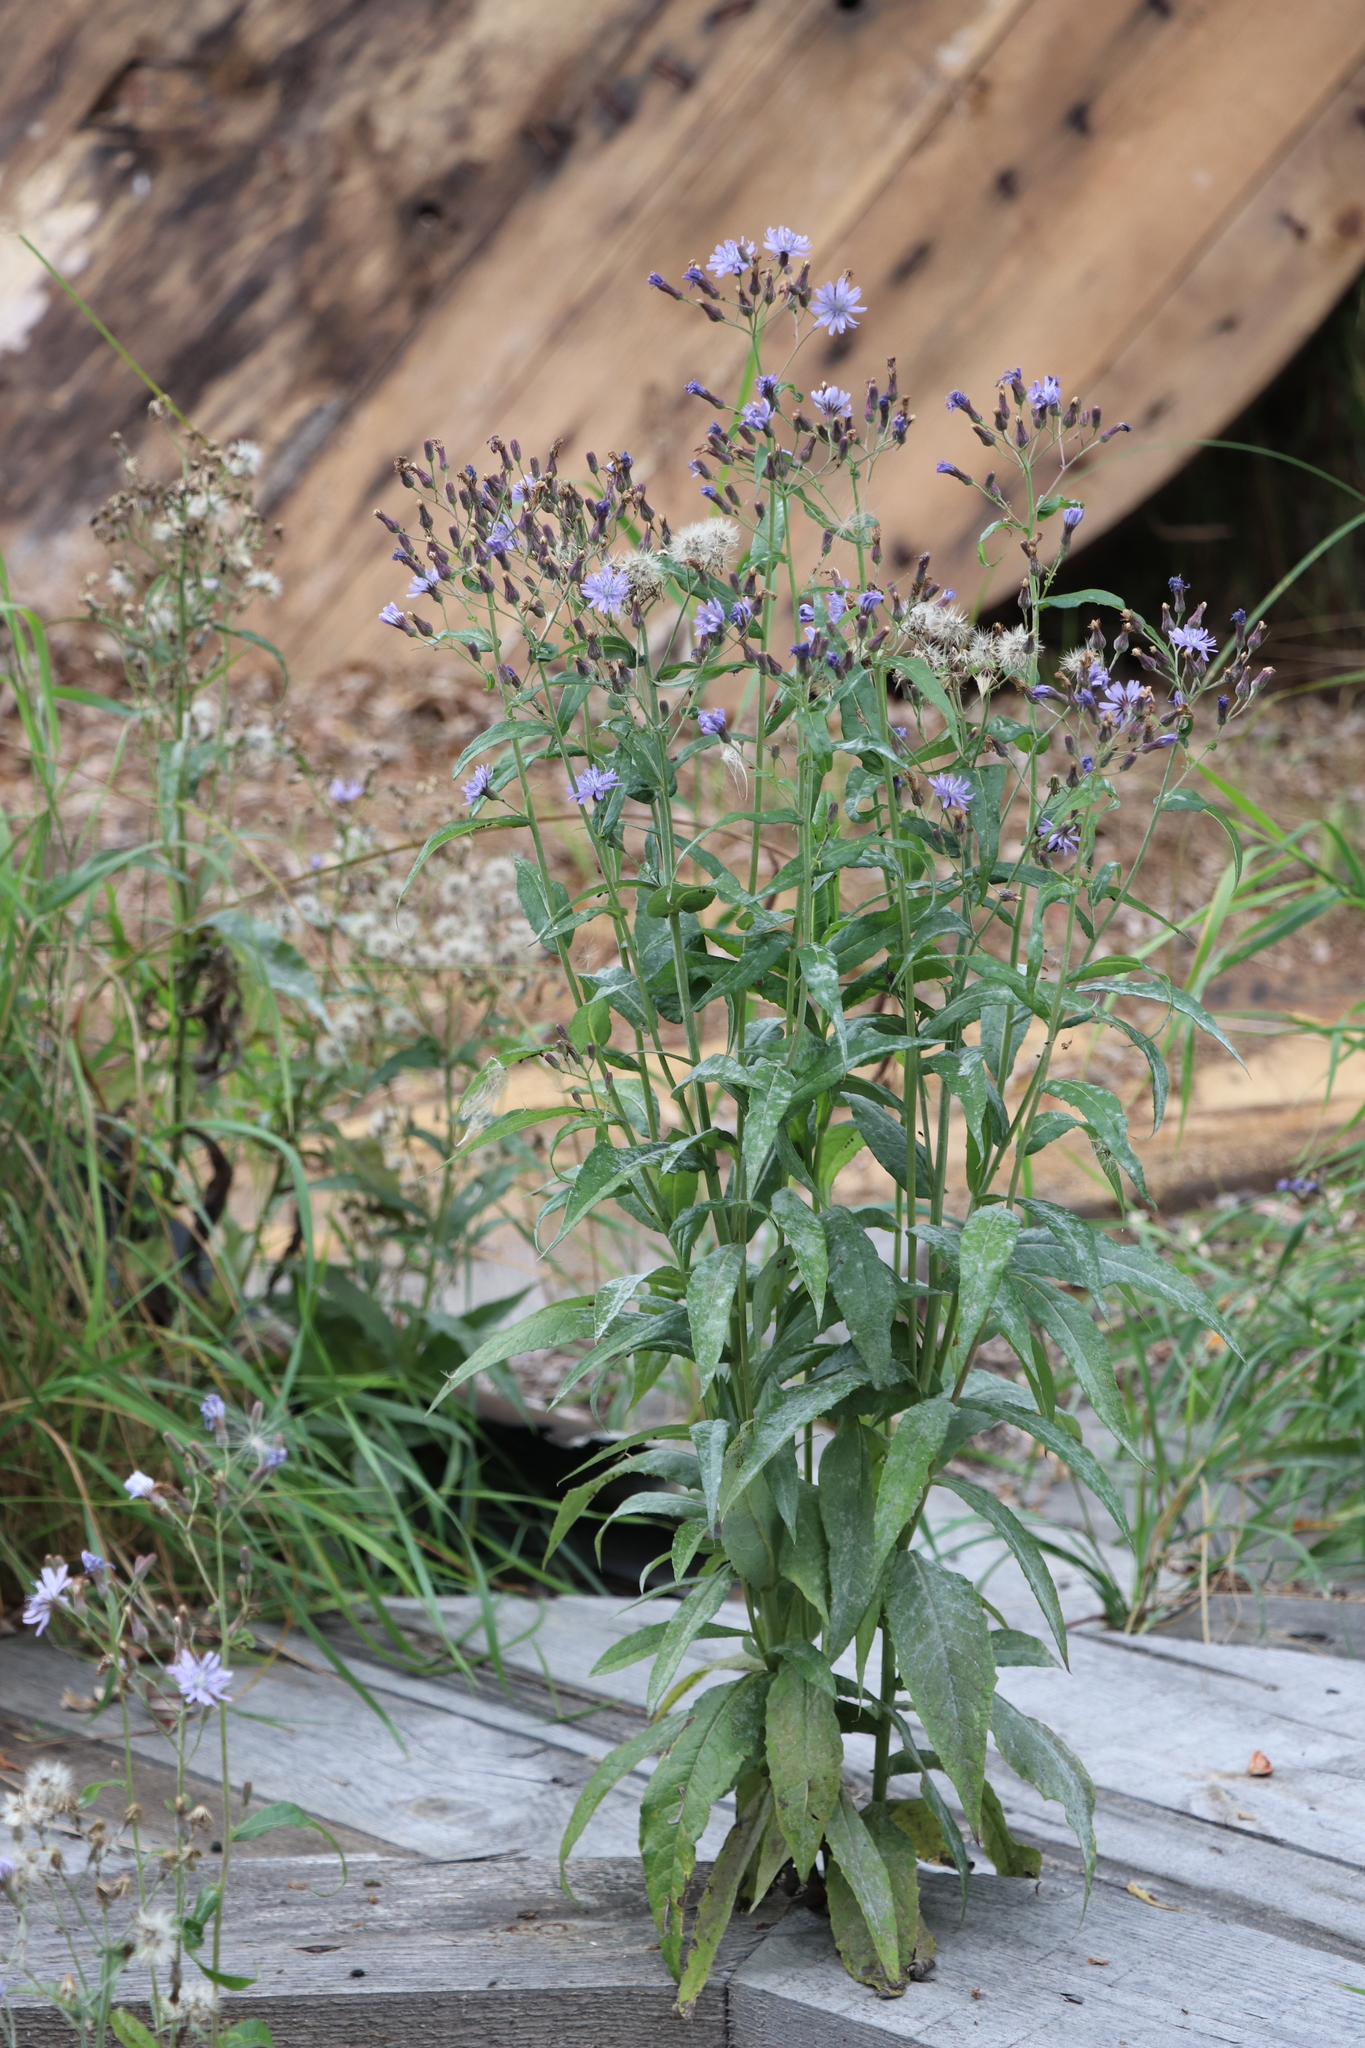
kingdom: Plantae
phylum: Tracheophyta
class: Magnoliopsida
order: Asterales
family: Asteraceae
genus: Lactuca
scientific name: Lactuca sibirica
